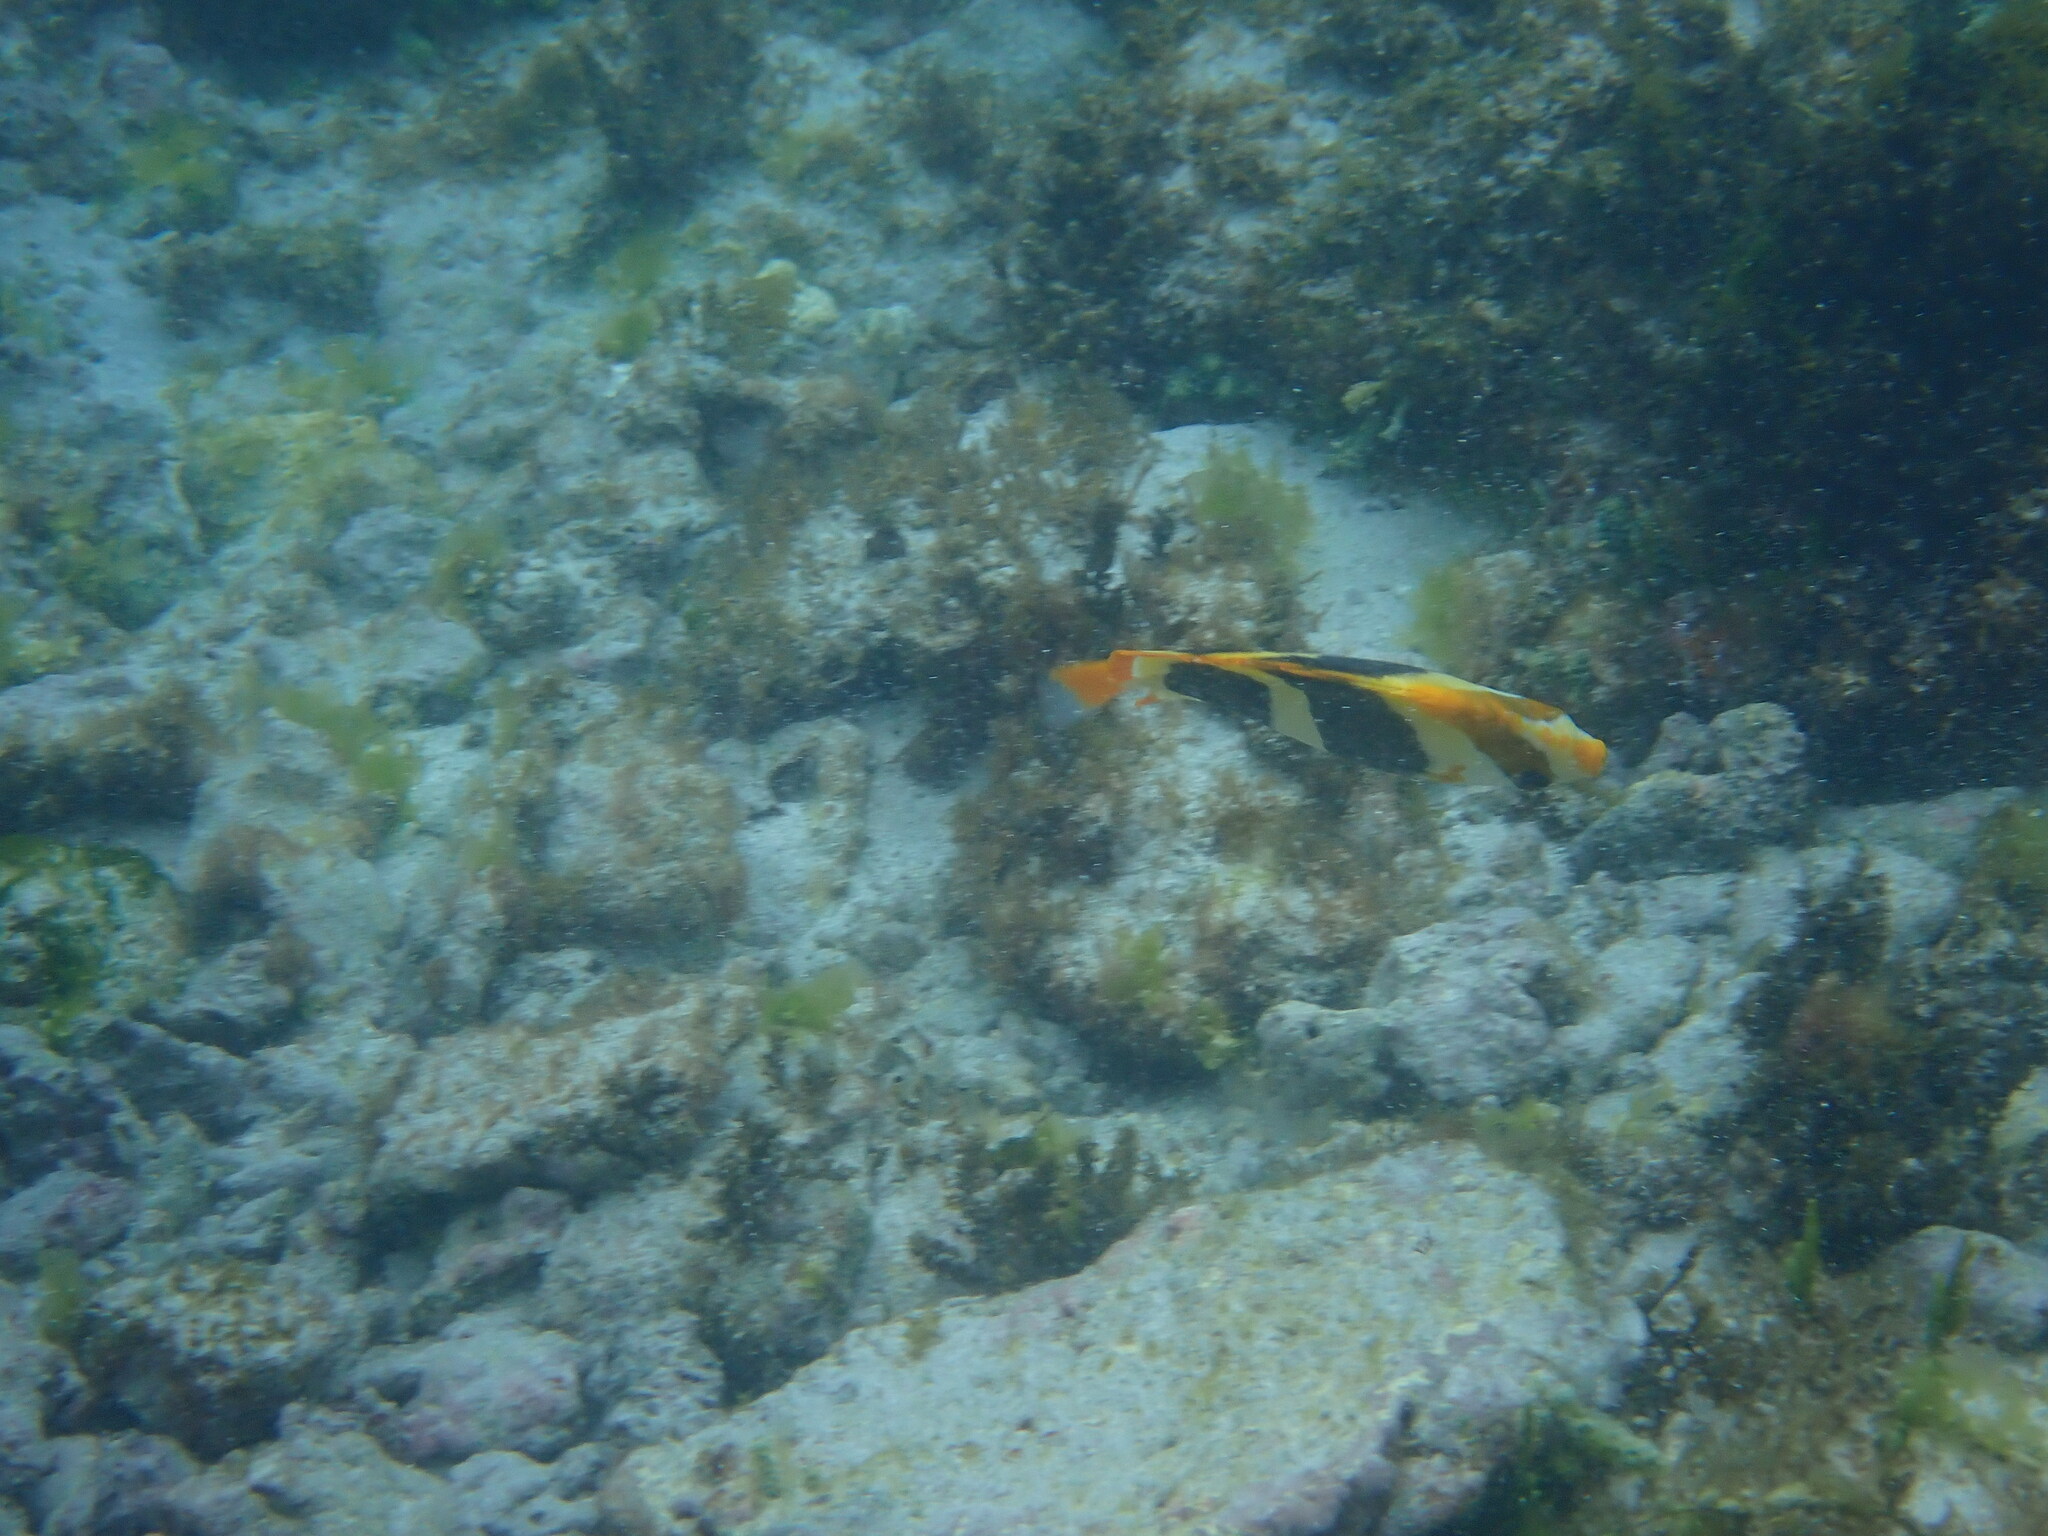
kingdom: Animalia
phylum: Chordata
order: Perciformes
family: Chaetodontidae
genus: Chaetodon
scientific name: Chaetodon tricinctus
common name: Three-striped butterflyfish
